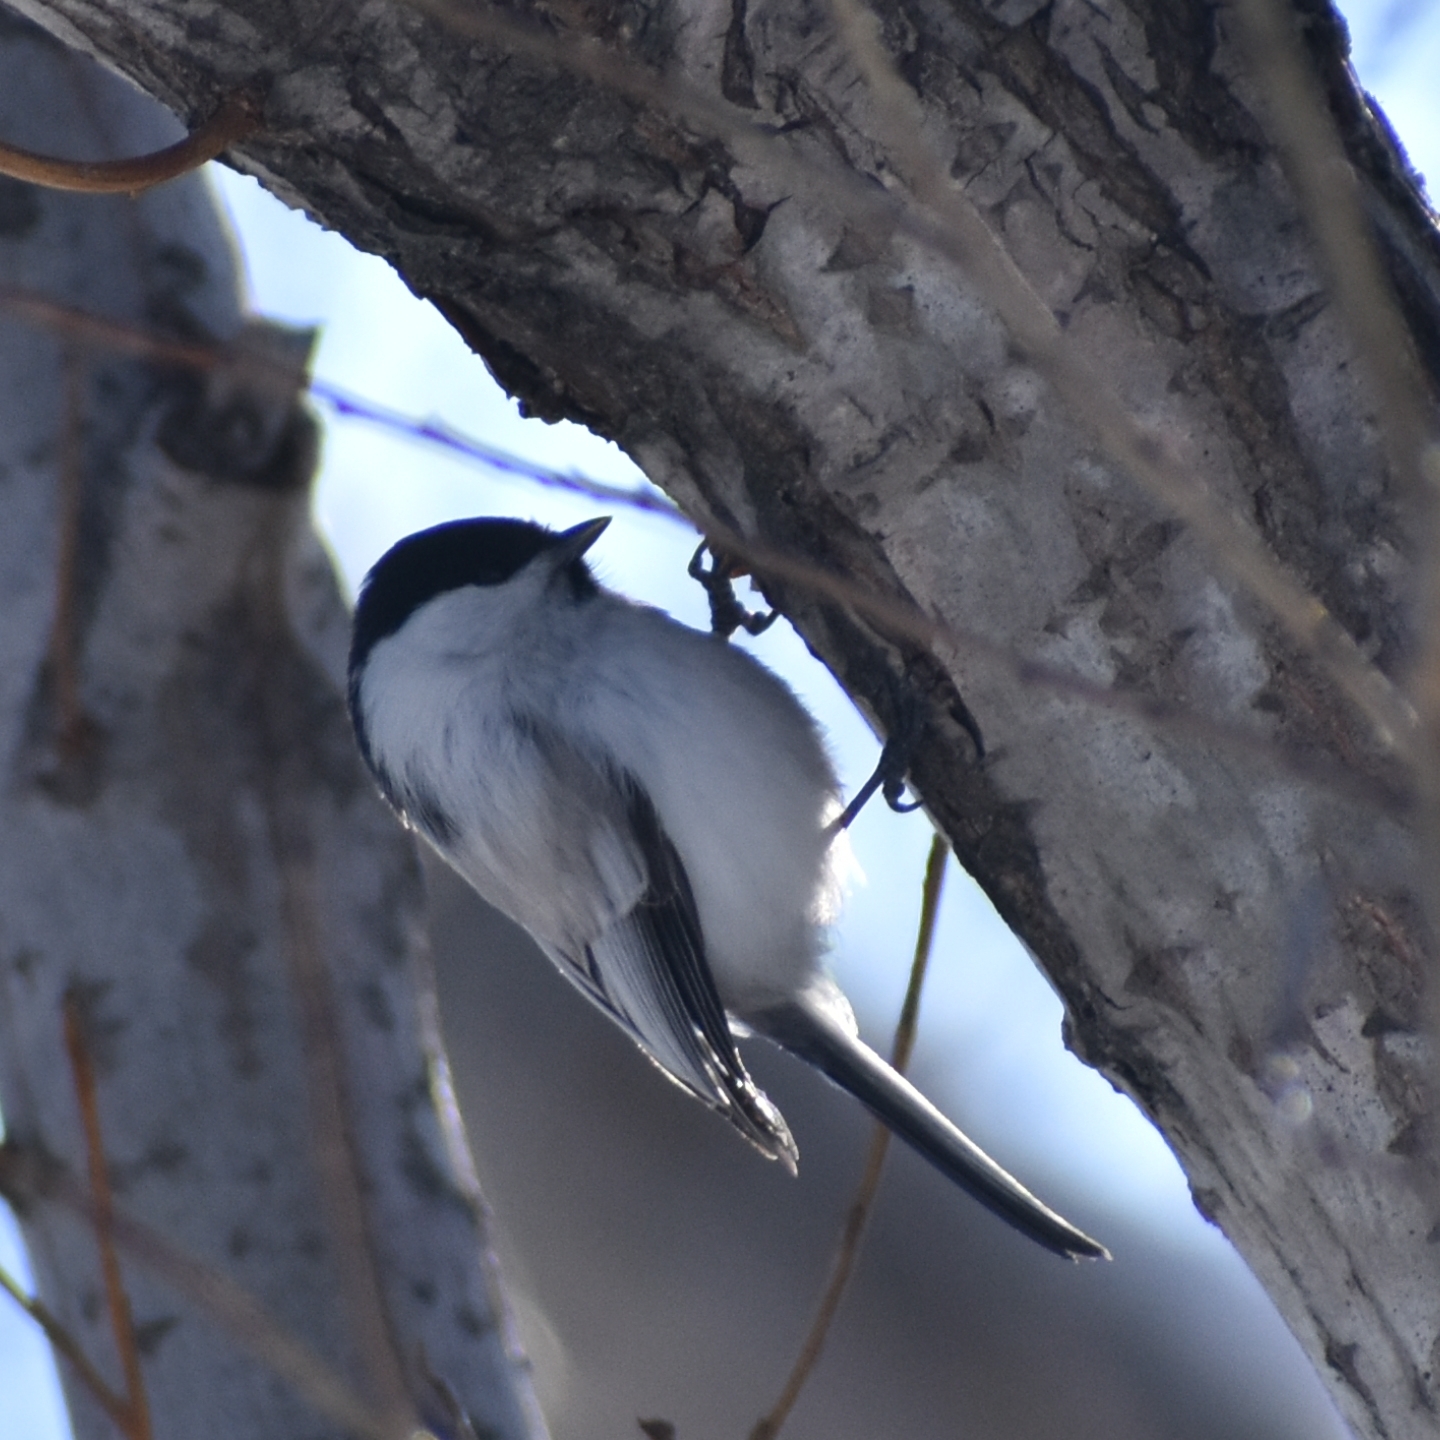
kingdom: Animalia
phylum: Chordata
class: Aves
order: Passeriformes
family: Paridae
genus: Poecile
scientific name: Poecile montanus
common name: Willow tit
